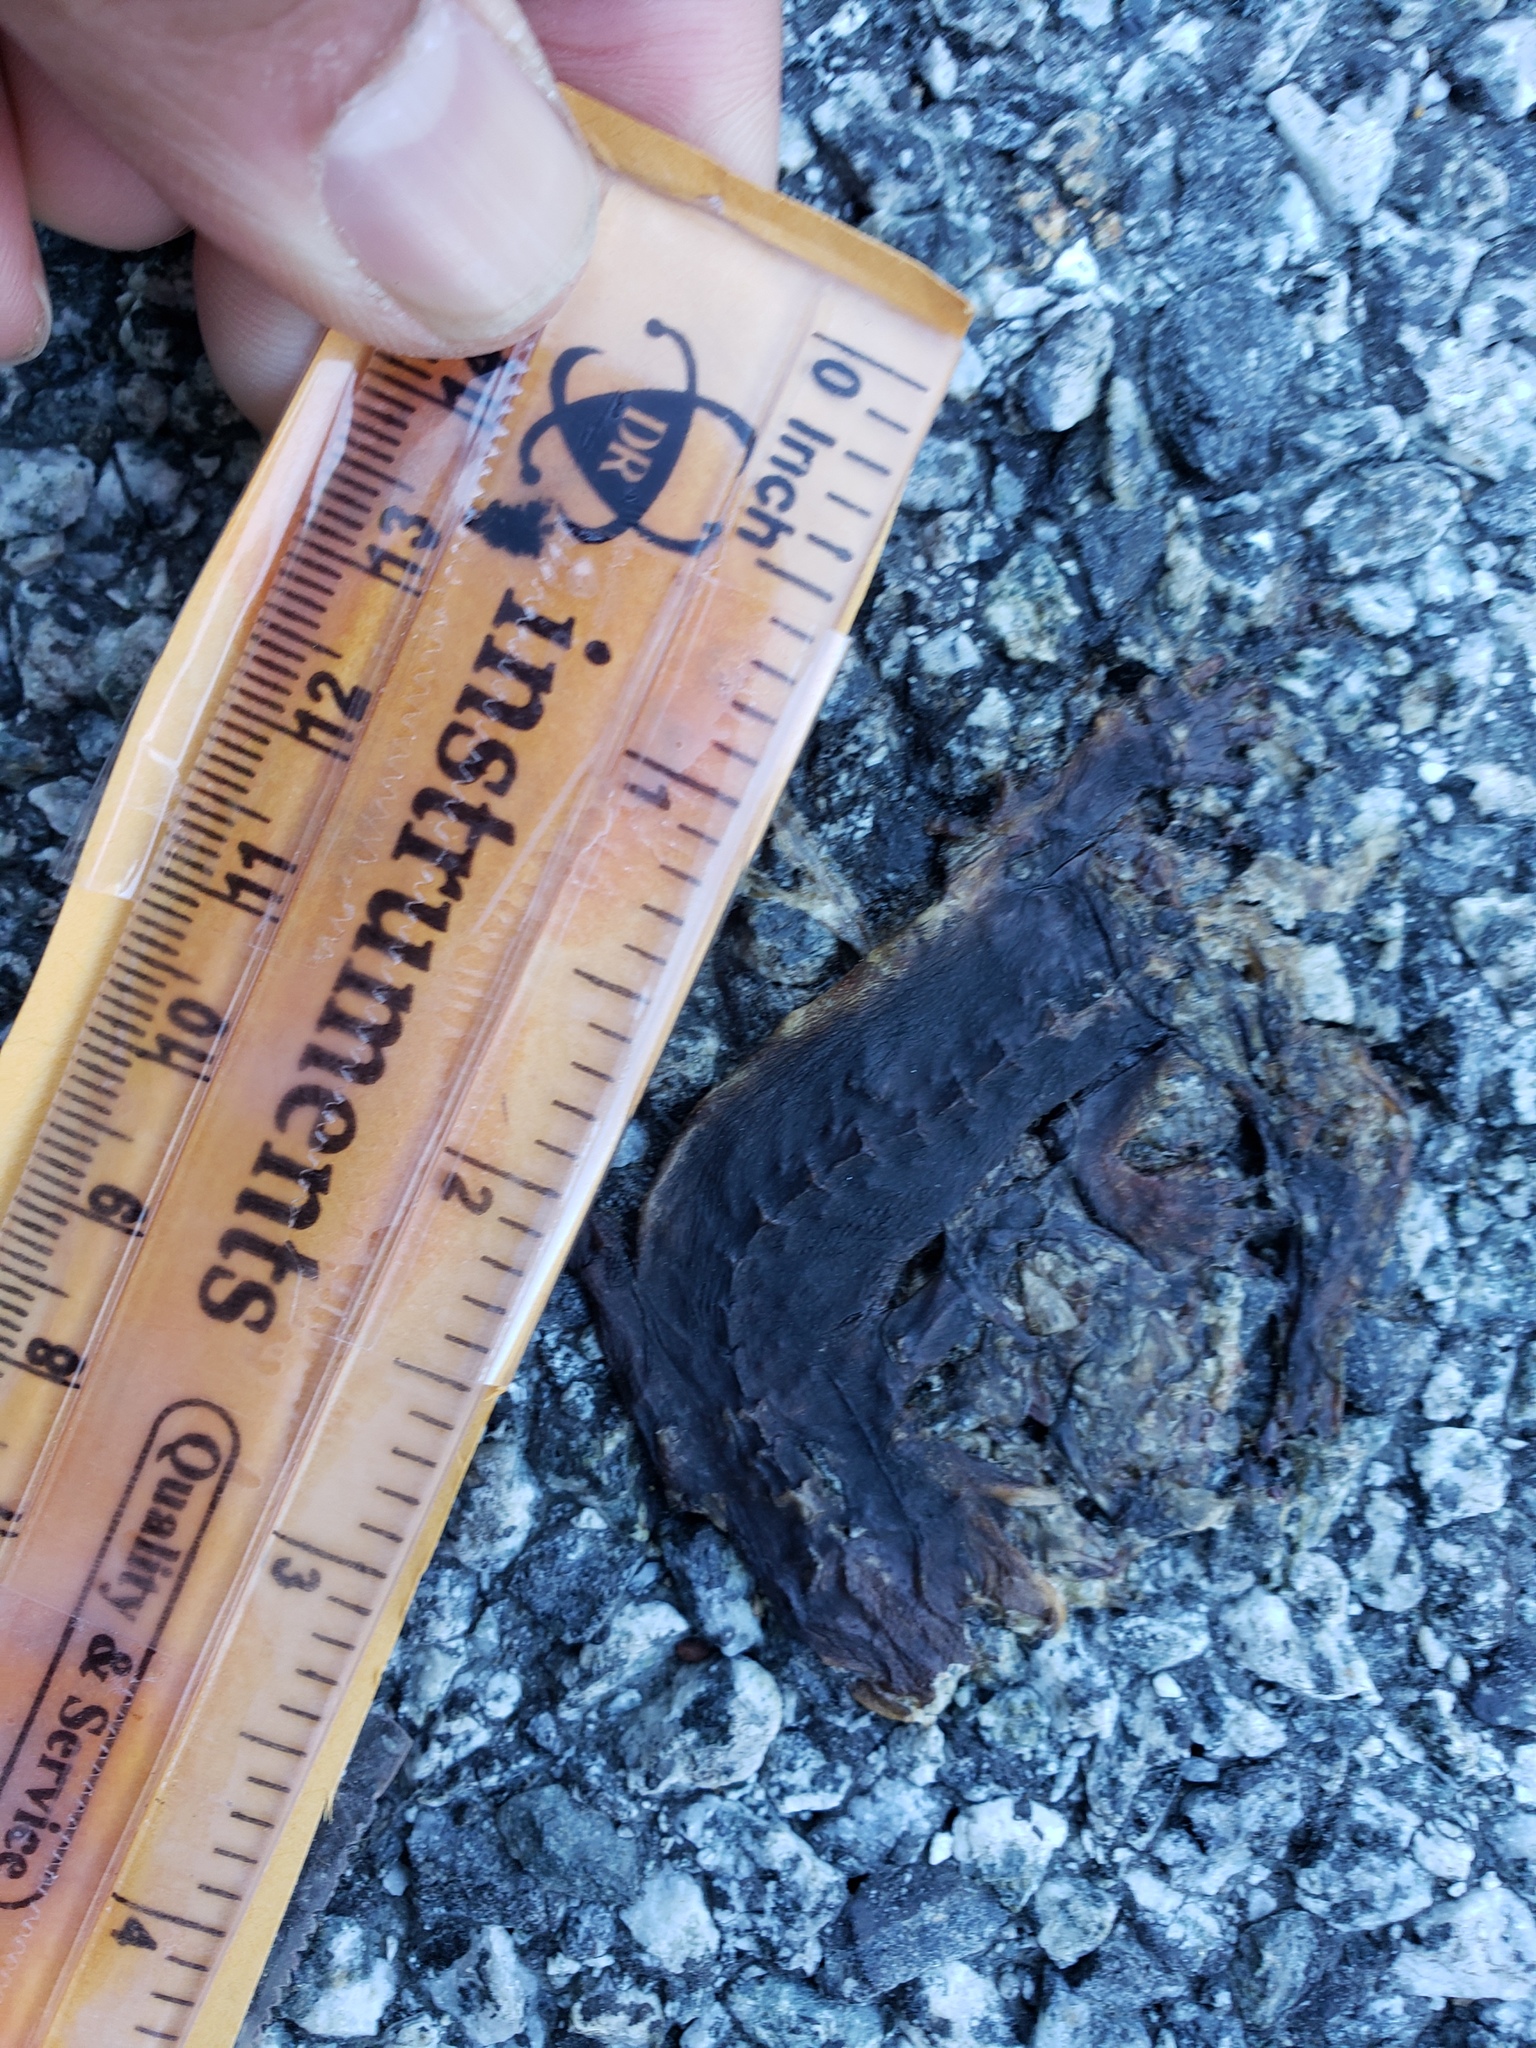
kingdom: Animalia
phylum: Chordata
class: Amphibia
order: Caudata
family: Salamandridae
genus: Taricha
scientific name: Taricha
